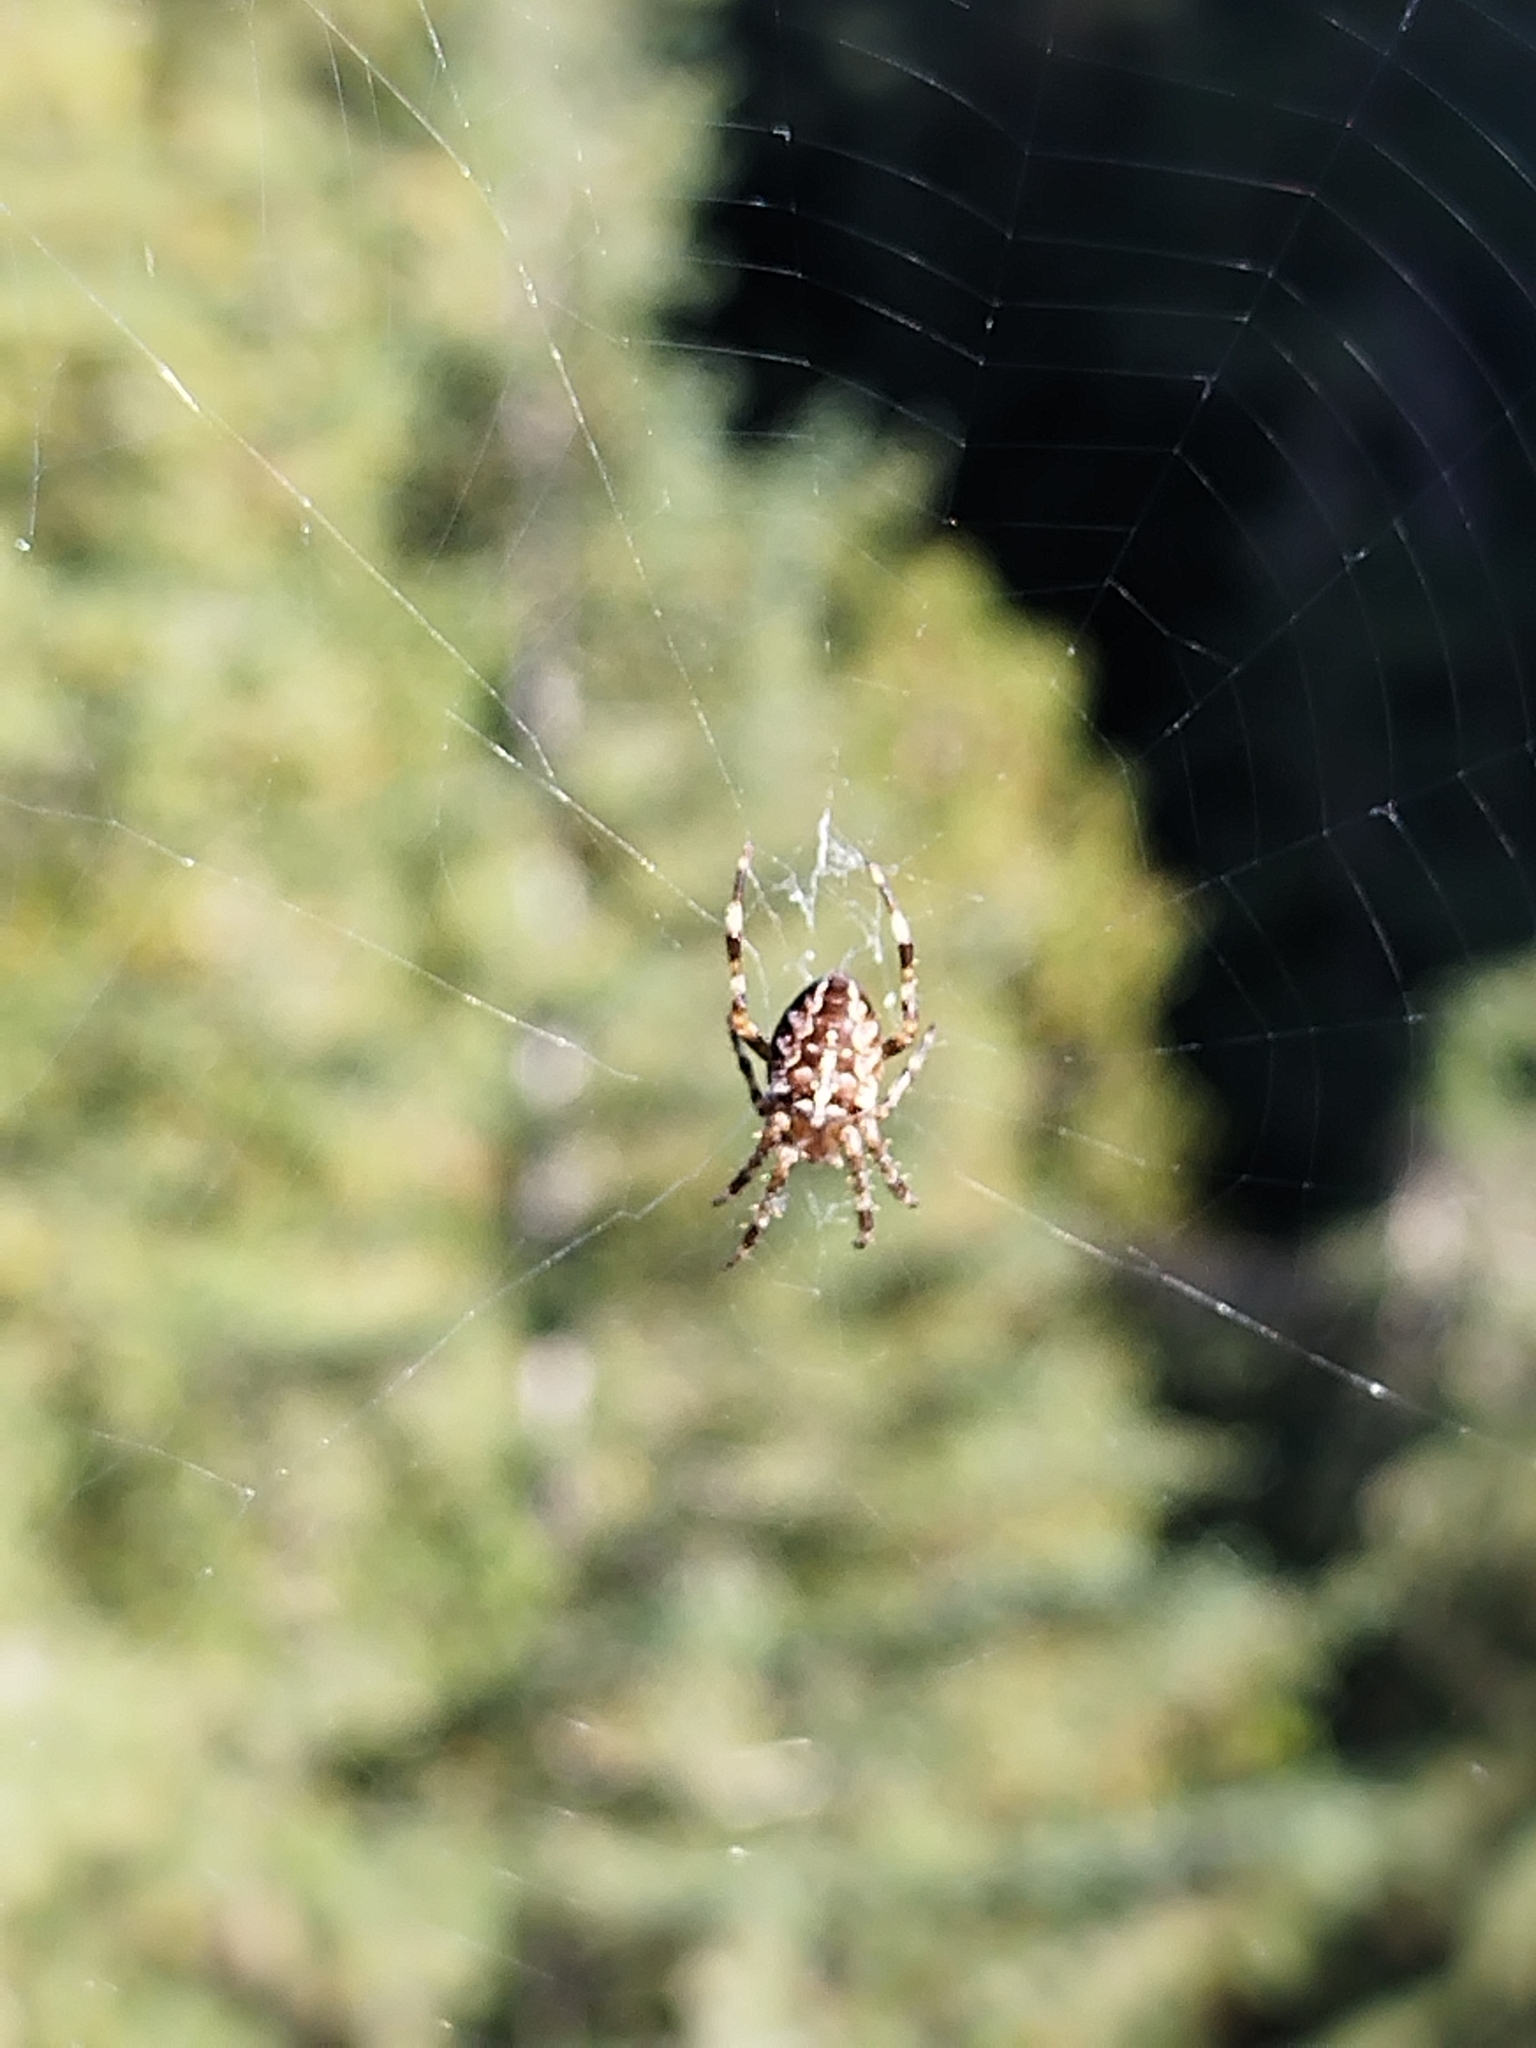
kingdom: Animalia
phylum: Arthropoda
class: Arachnida
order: Araneae
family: Araneidae
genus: Araneus
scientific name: Araneus diadematus
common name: Cross orbweaver
